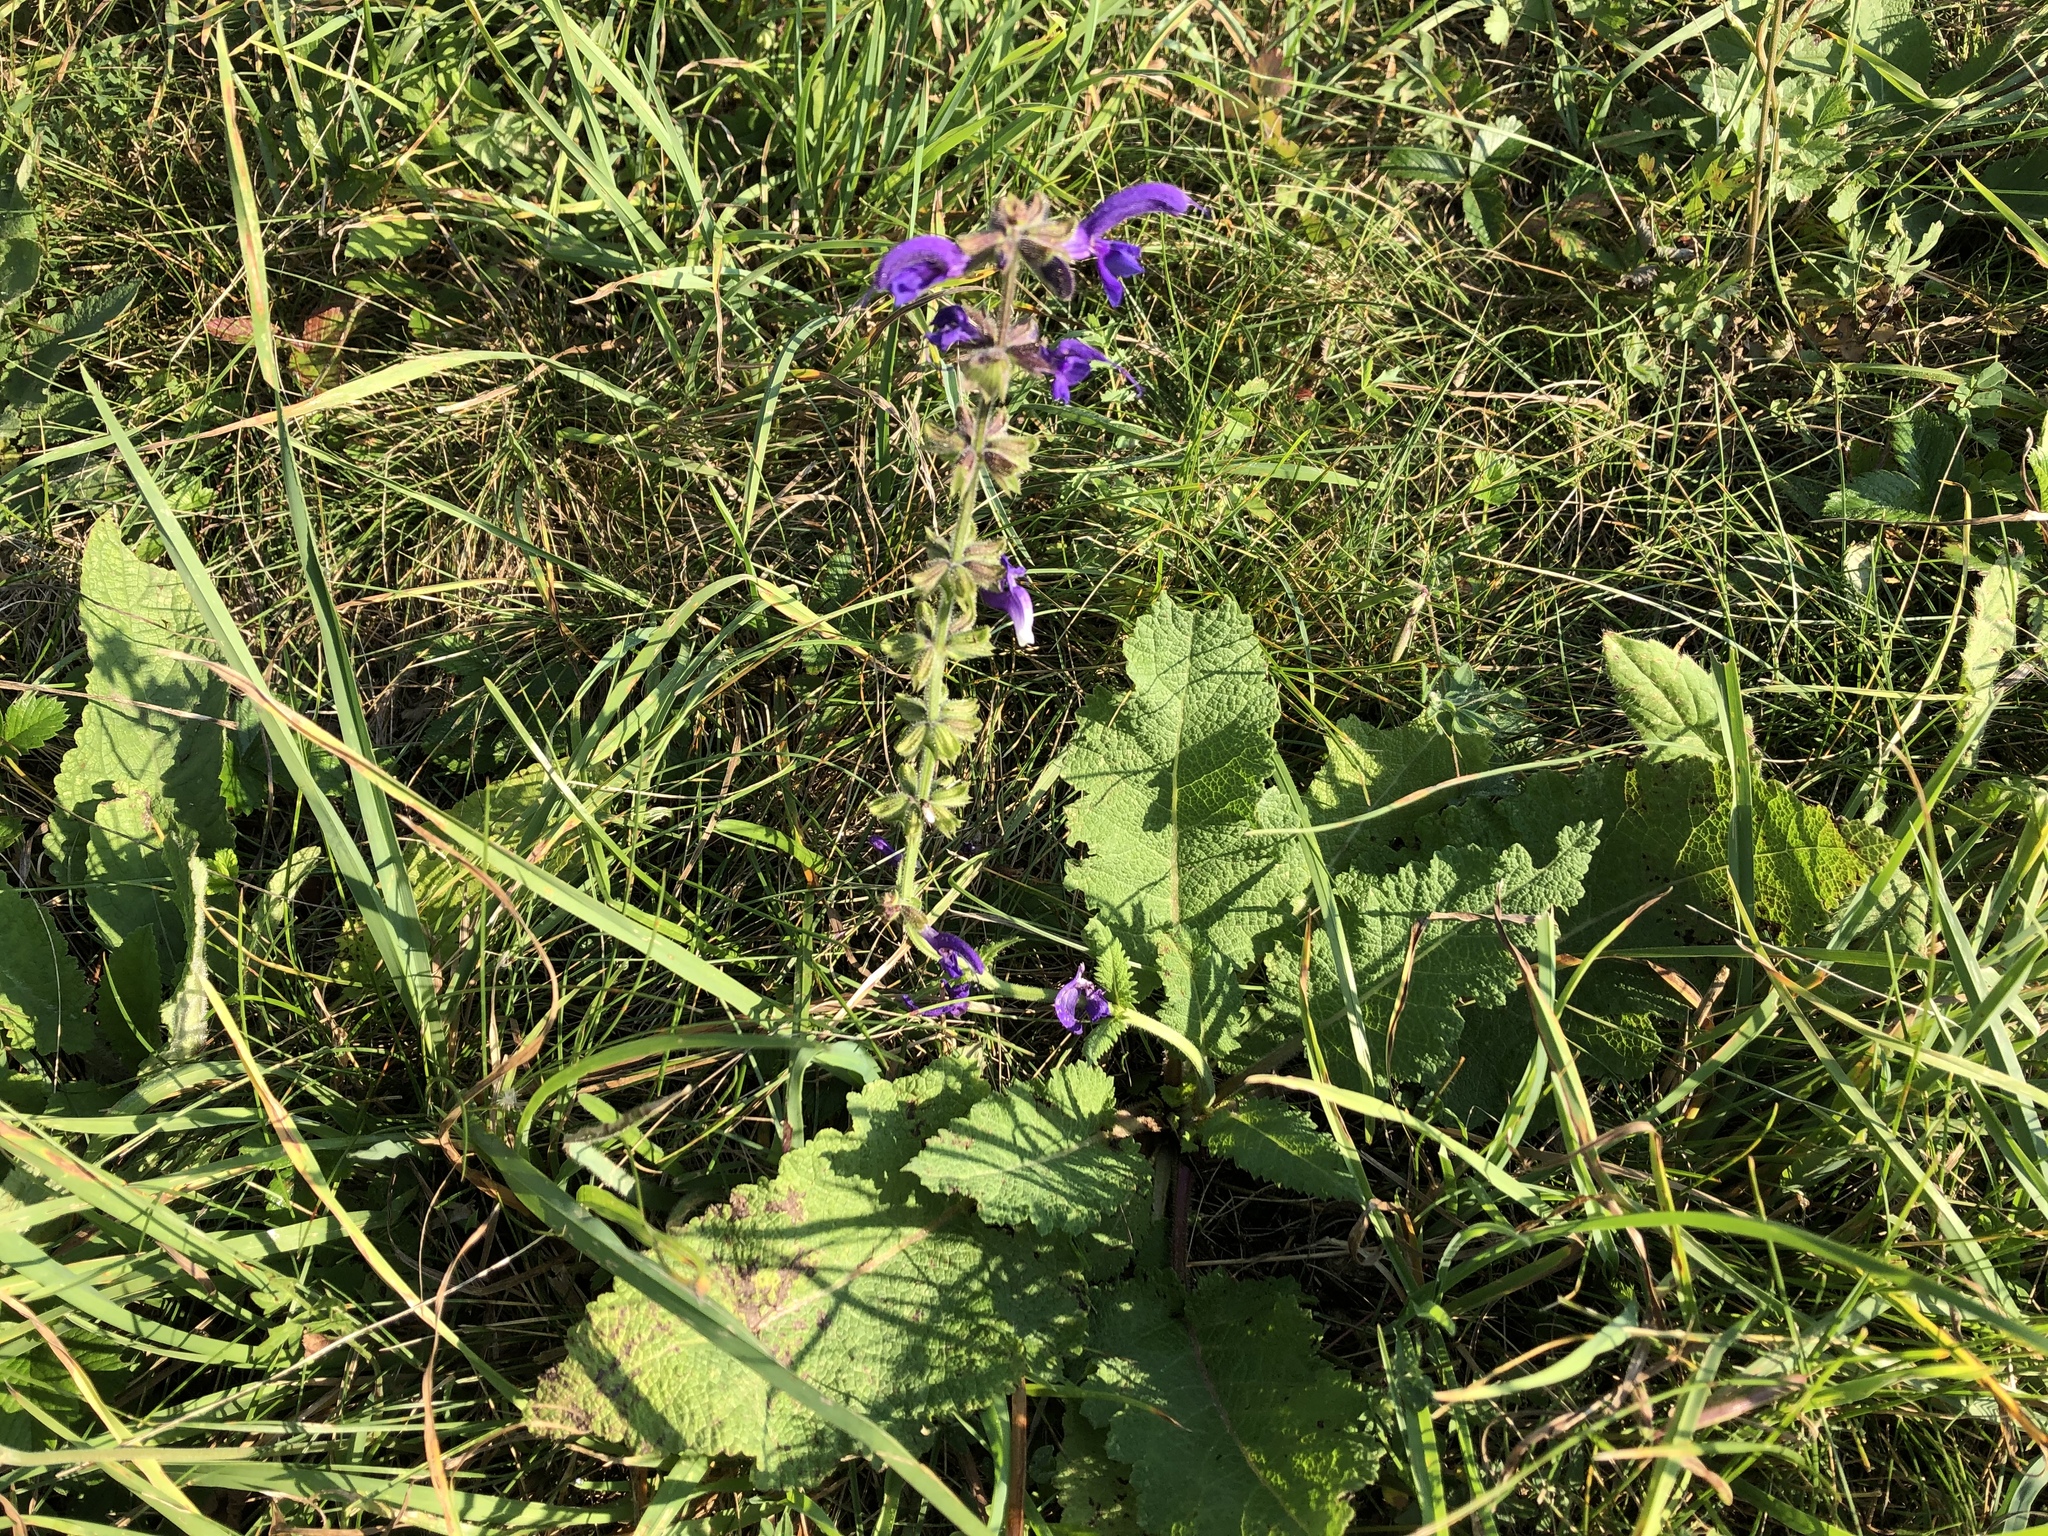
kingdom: Plantae
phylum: Tracheophyta
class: Magnoliopsida
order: Lamiales
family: Lamiaceae
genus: Salvia
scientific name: Salvia pratensis
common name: Meadow sage
